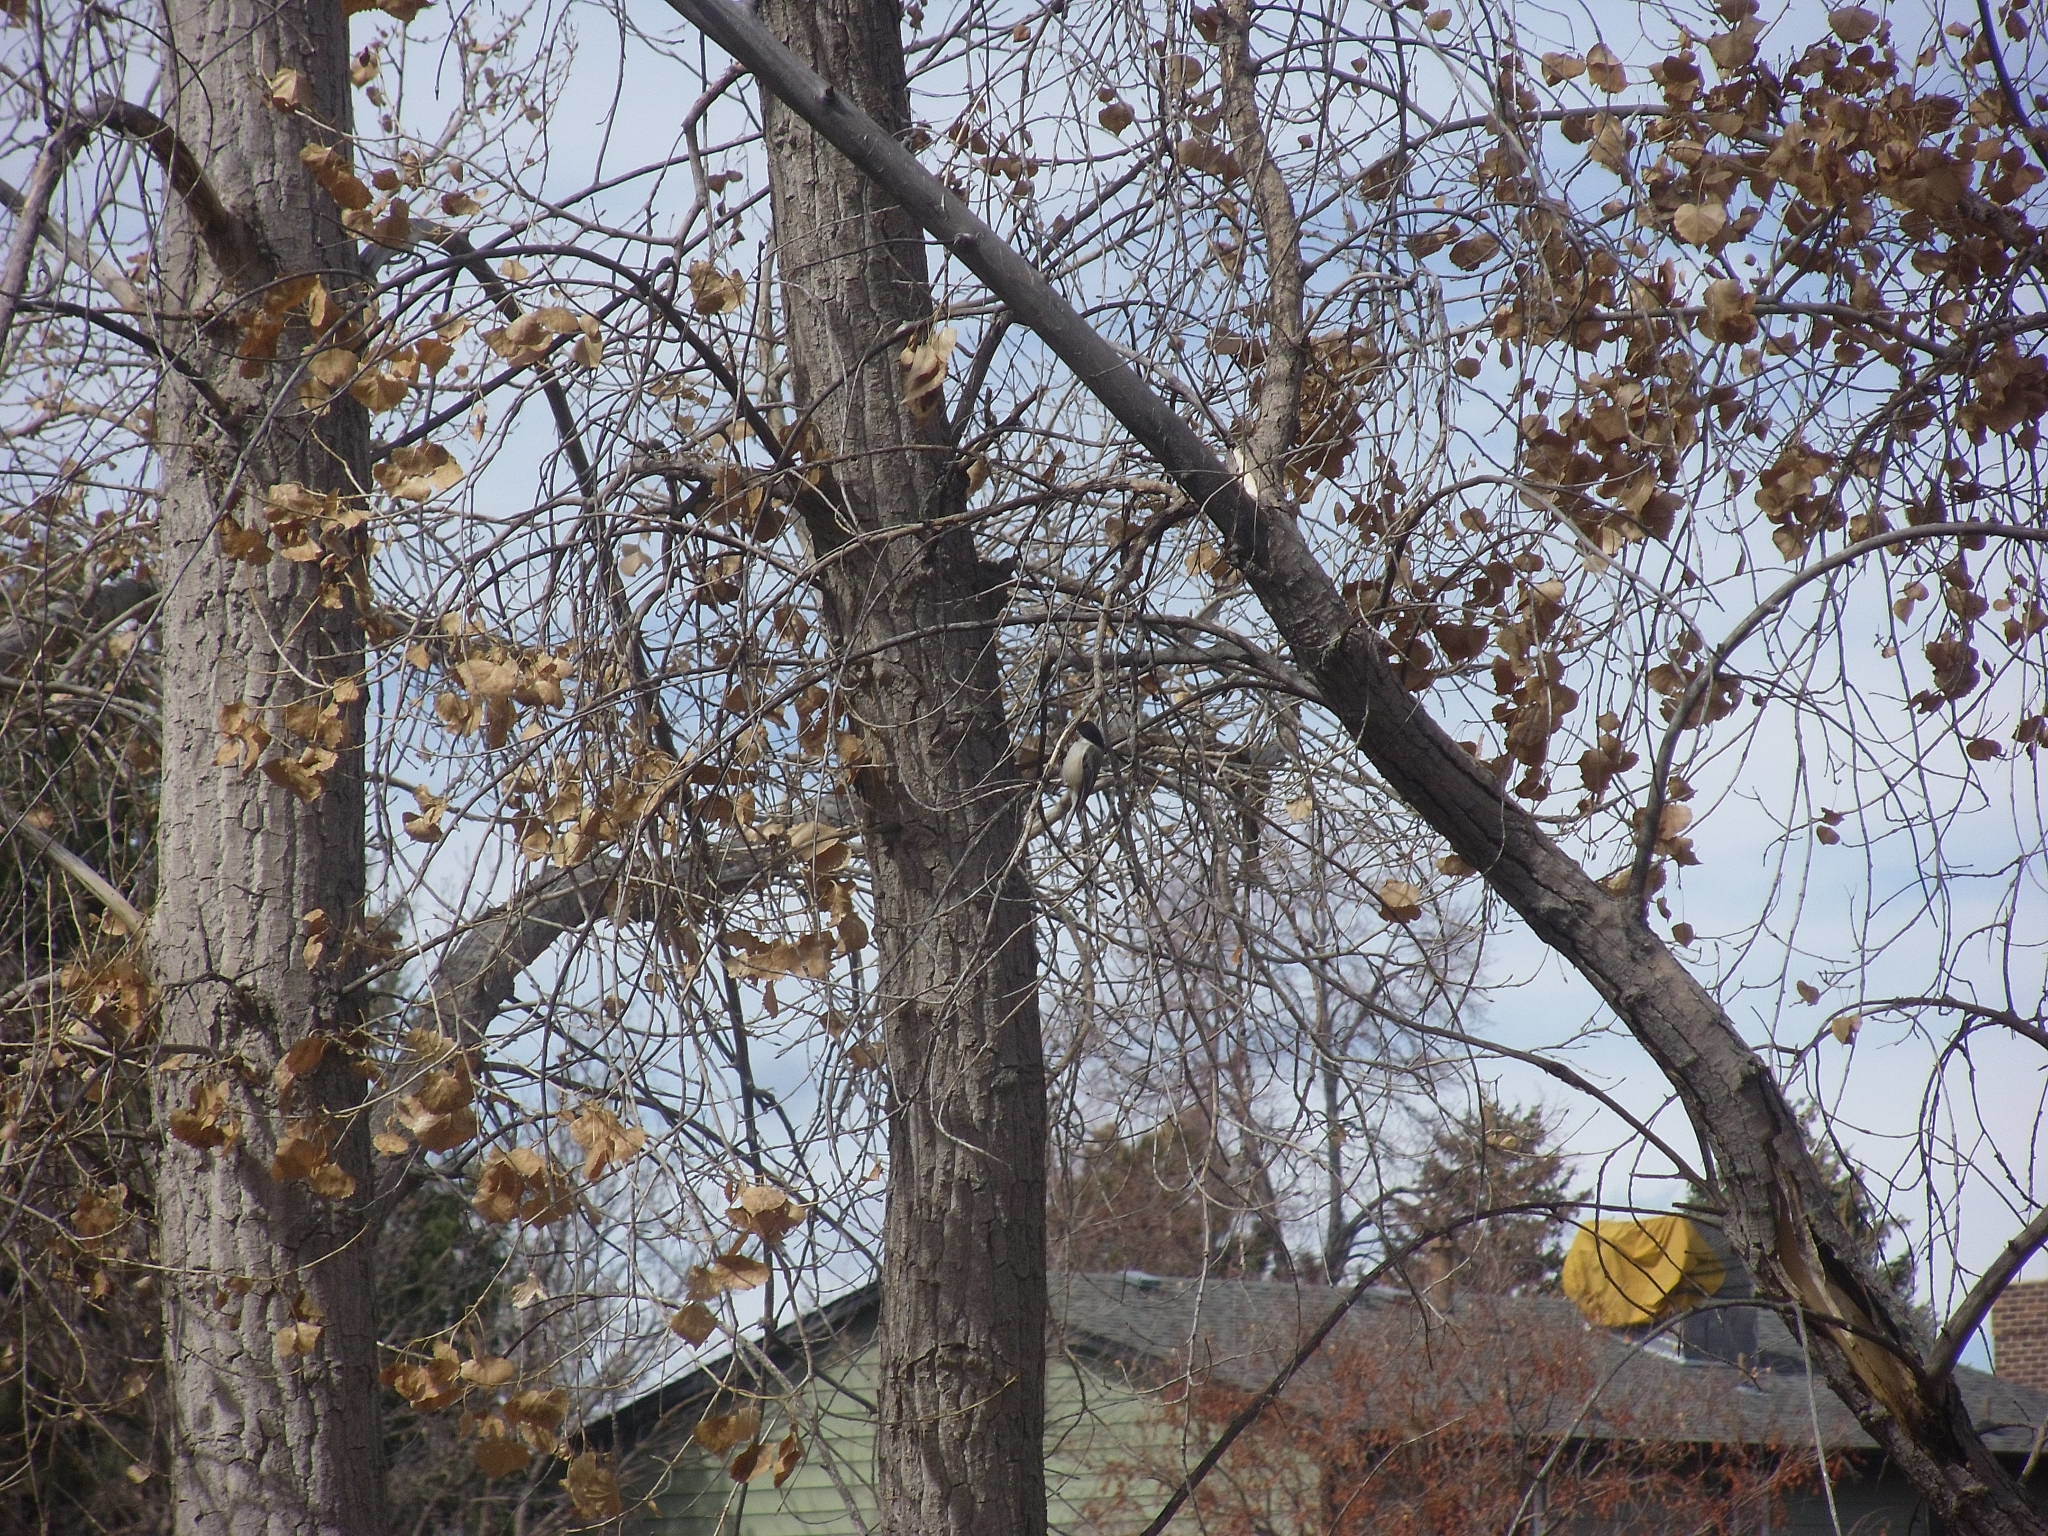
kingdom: Animalia
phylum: Chordata
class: Aves
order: Passeriformes
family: Paridae
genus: Poecile
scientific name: Poecile atricapillus
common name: Black-capped chickadee
